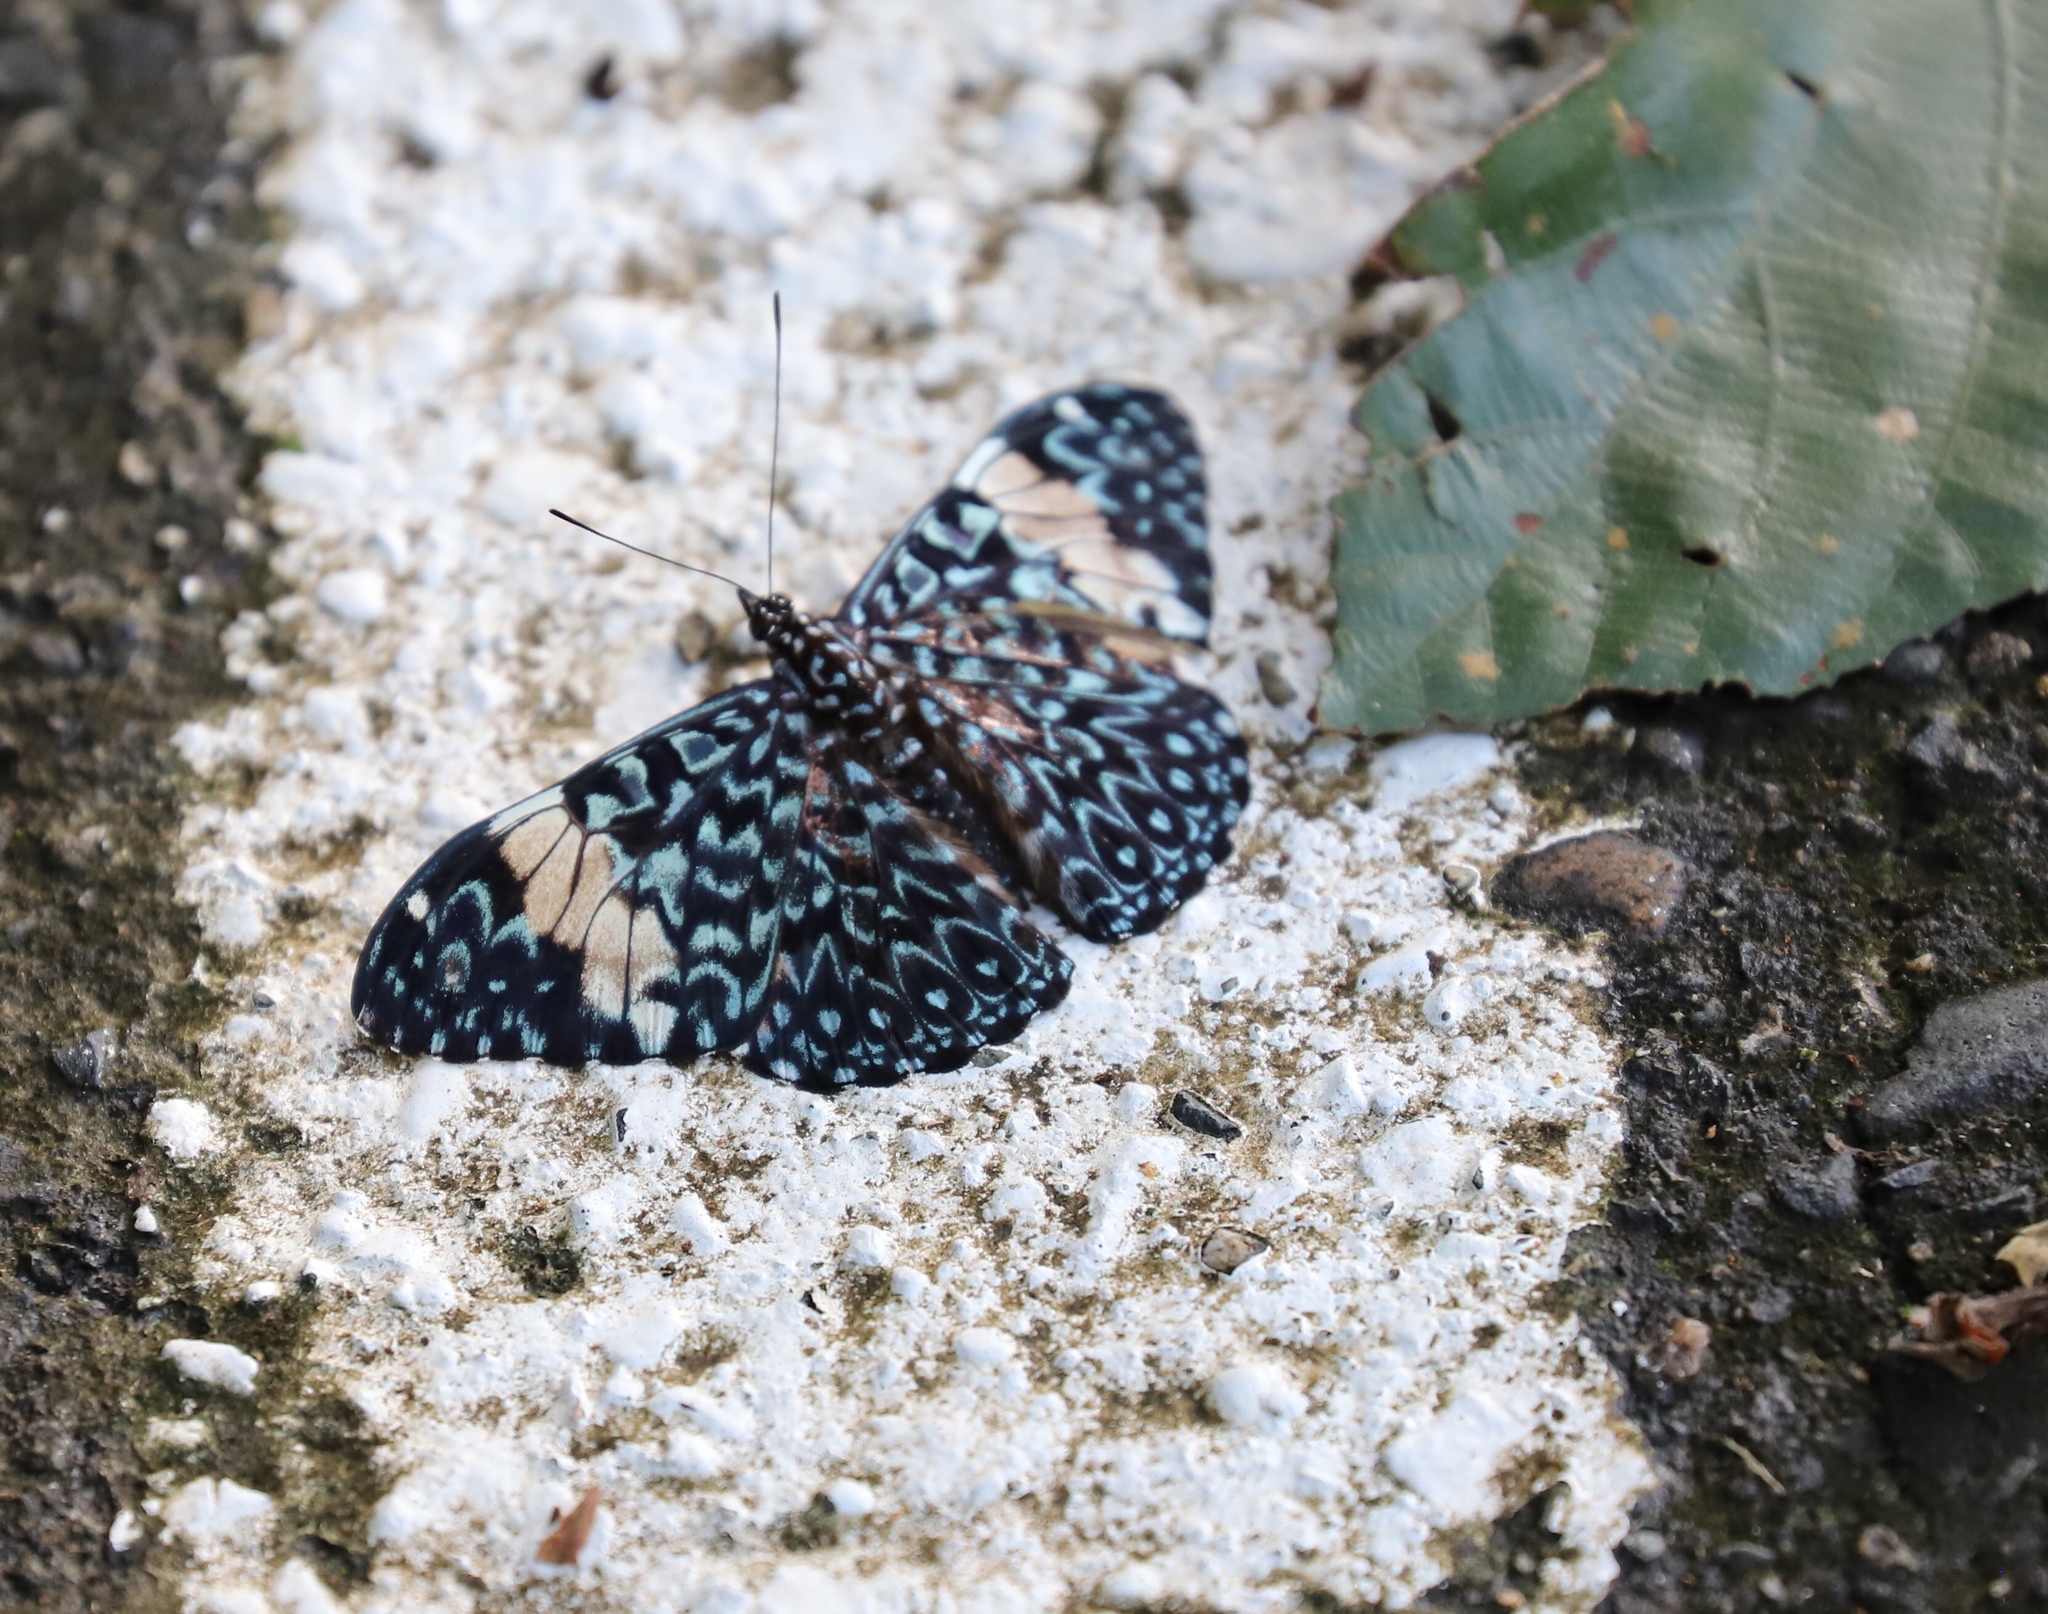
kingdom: Animalia
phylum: Arthropoda
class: Insecta
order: Lepidoptera
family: Nymphalidae
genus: Hamadryas
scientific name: Hamadryas amphinome
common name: Red cracker
